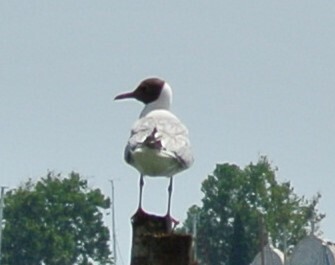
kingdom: Animalia
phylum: Chordata
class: Aves
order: Charadriiformes
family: Laridae
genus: Chroicocephalus
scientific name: Chroicocephalus ridibundus
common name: Black-headed gull
